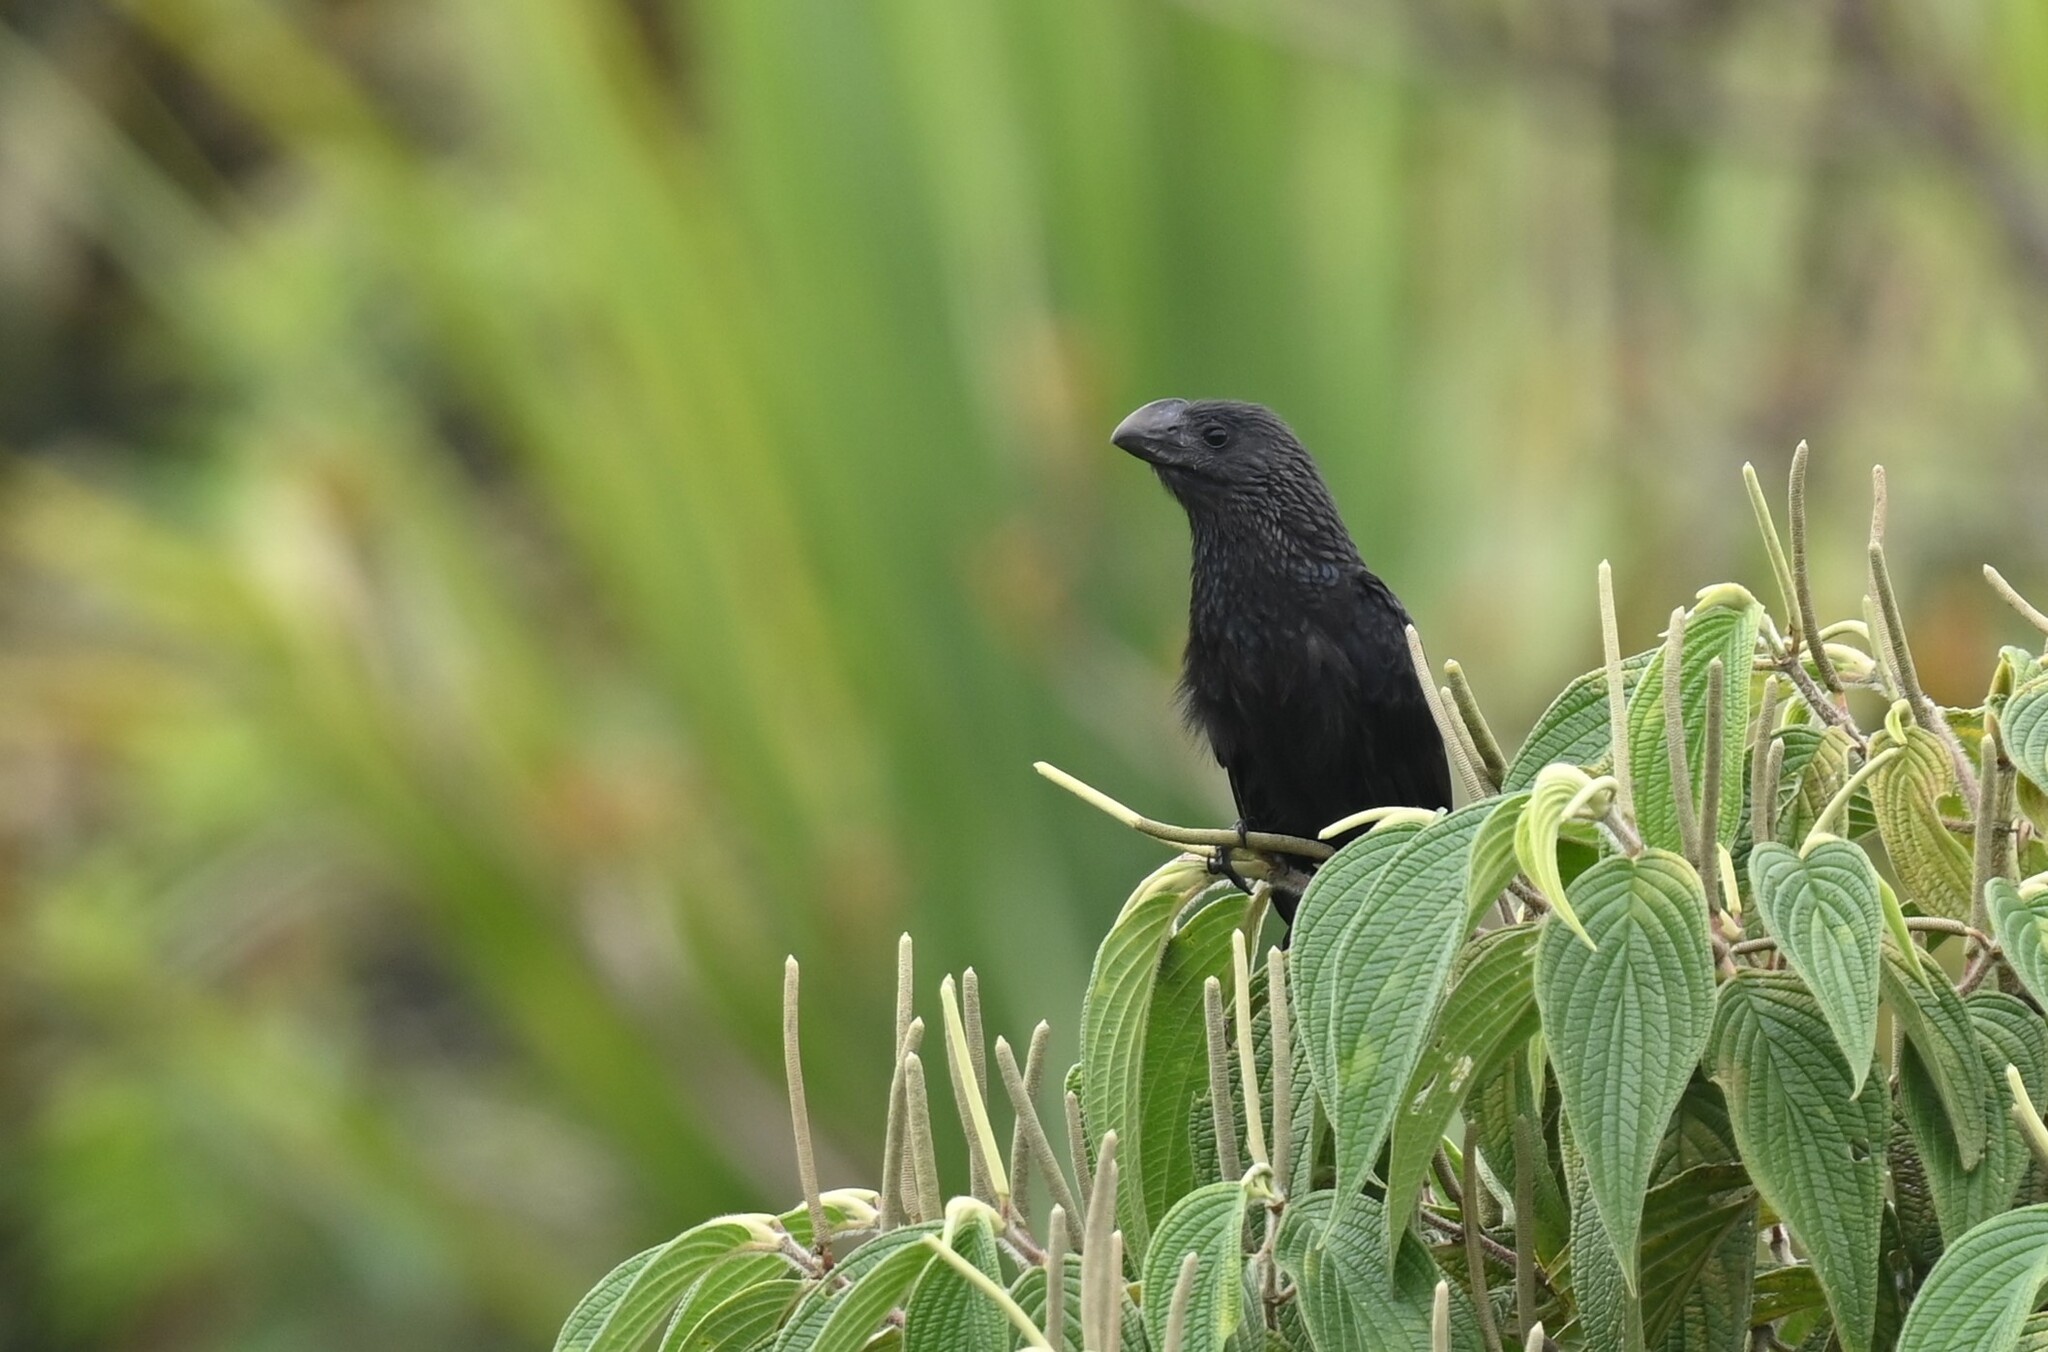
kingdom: Animalia
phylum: Chordata
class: Aves
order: Cuculiformes
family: Cuculidae
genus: Crotophaga
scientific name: Crotophaga ani
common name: Smooth-billed ani
